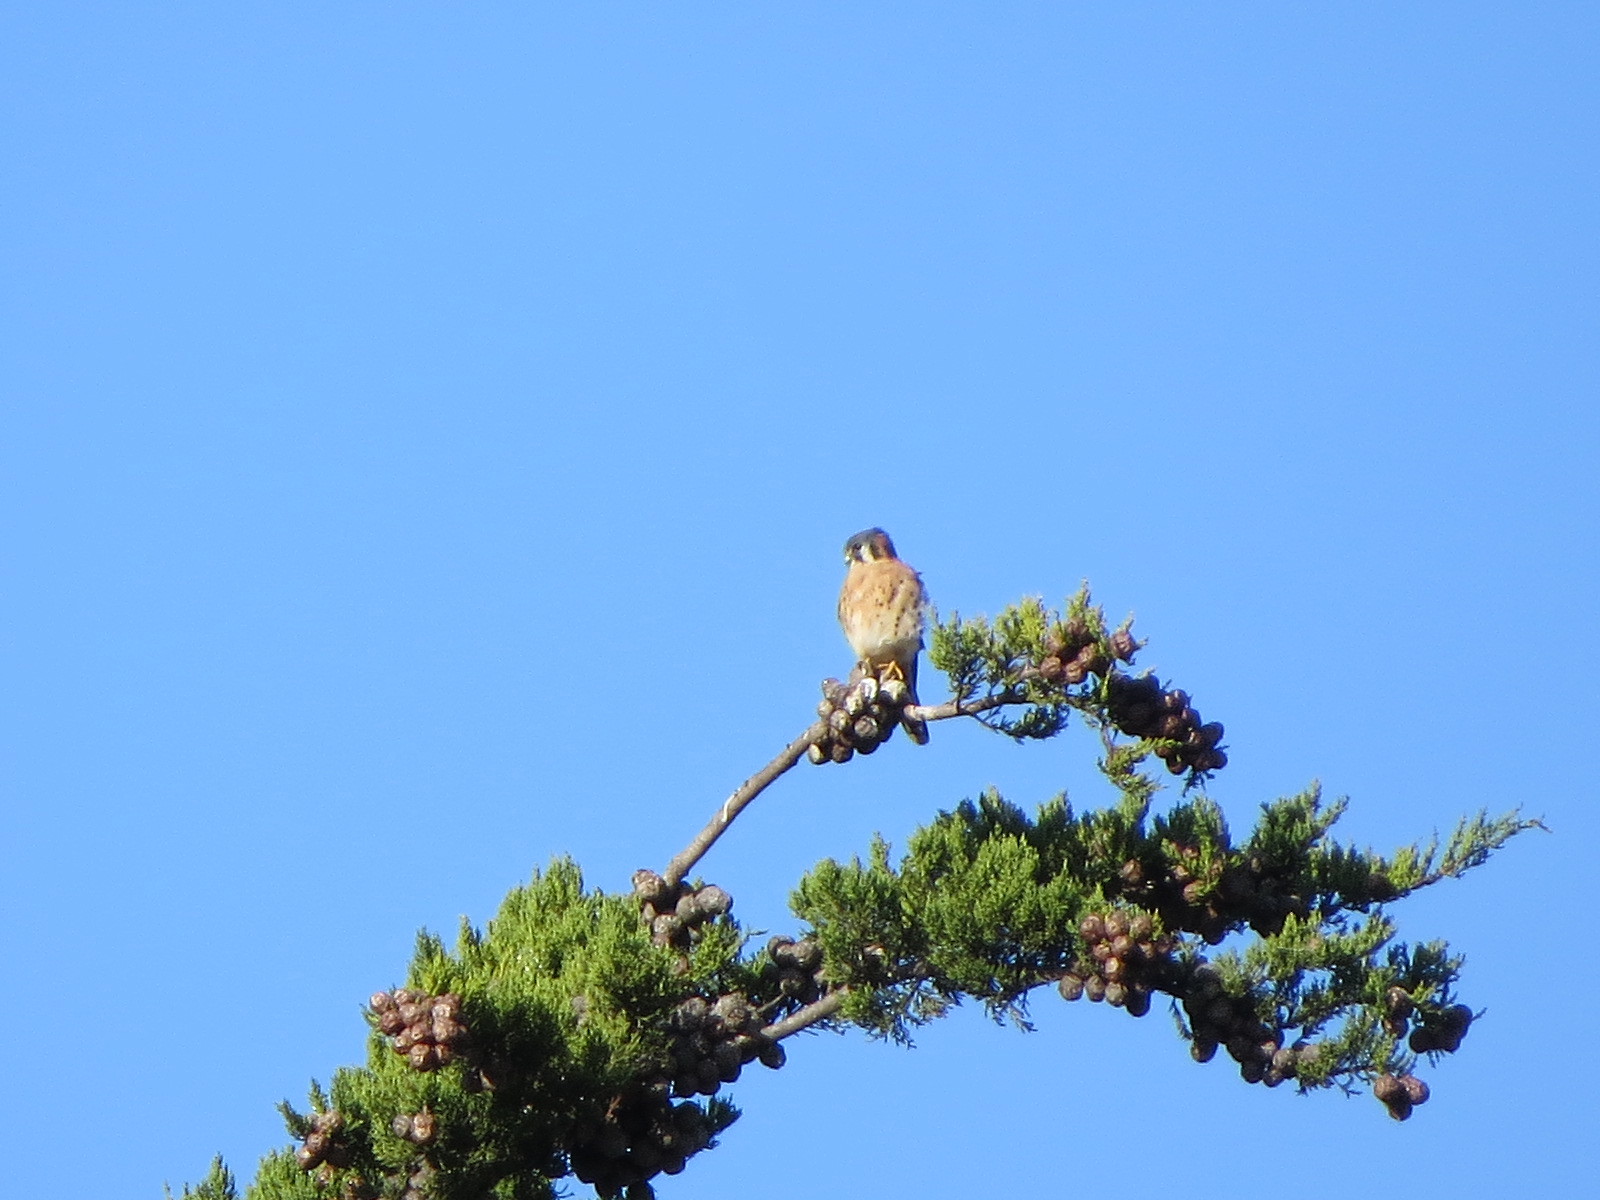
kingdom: Animalia
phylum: Chordata
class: Aves
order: Falconiformes
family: Falconidae
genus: Falco
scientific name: Falco sparverius
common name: American kestrel
